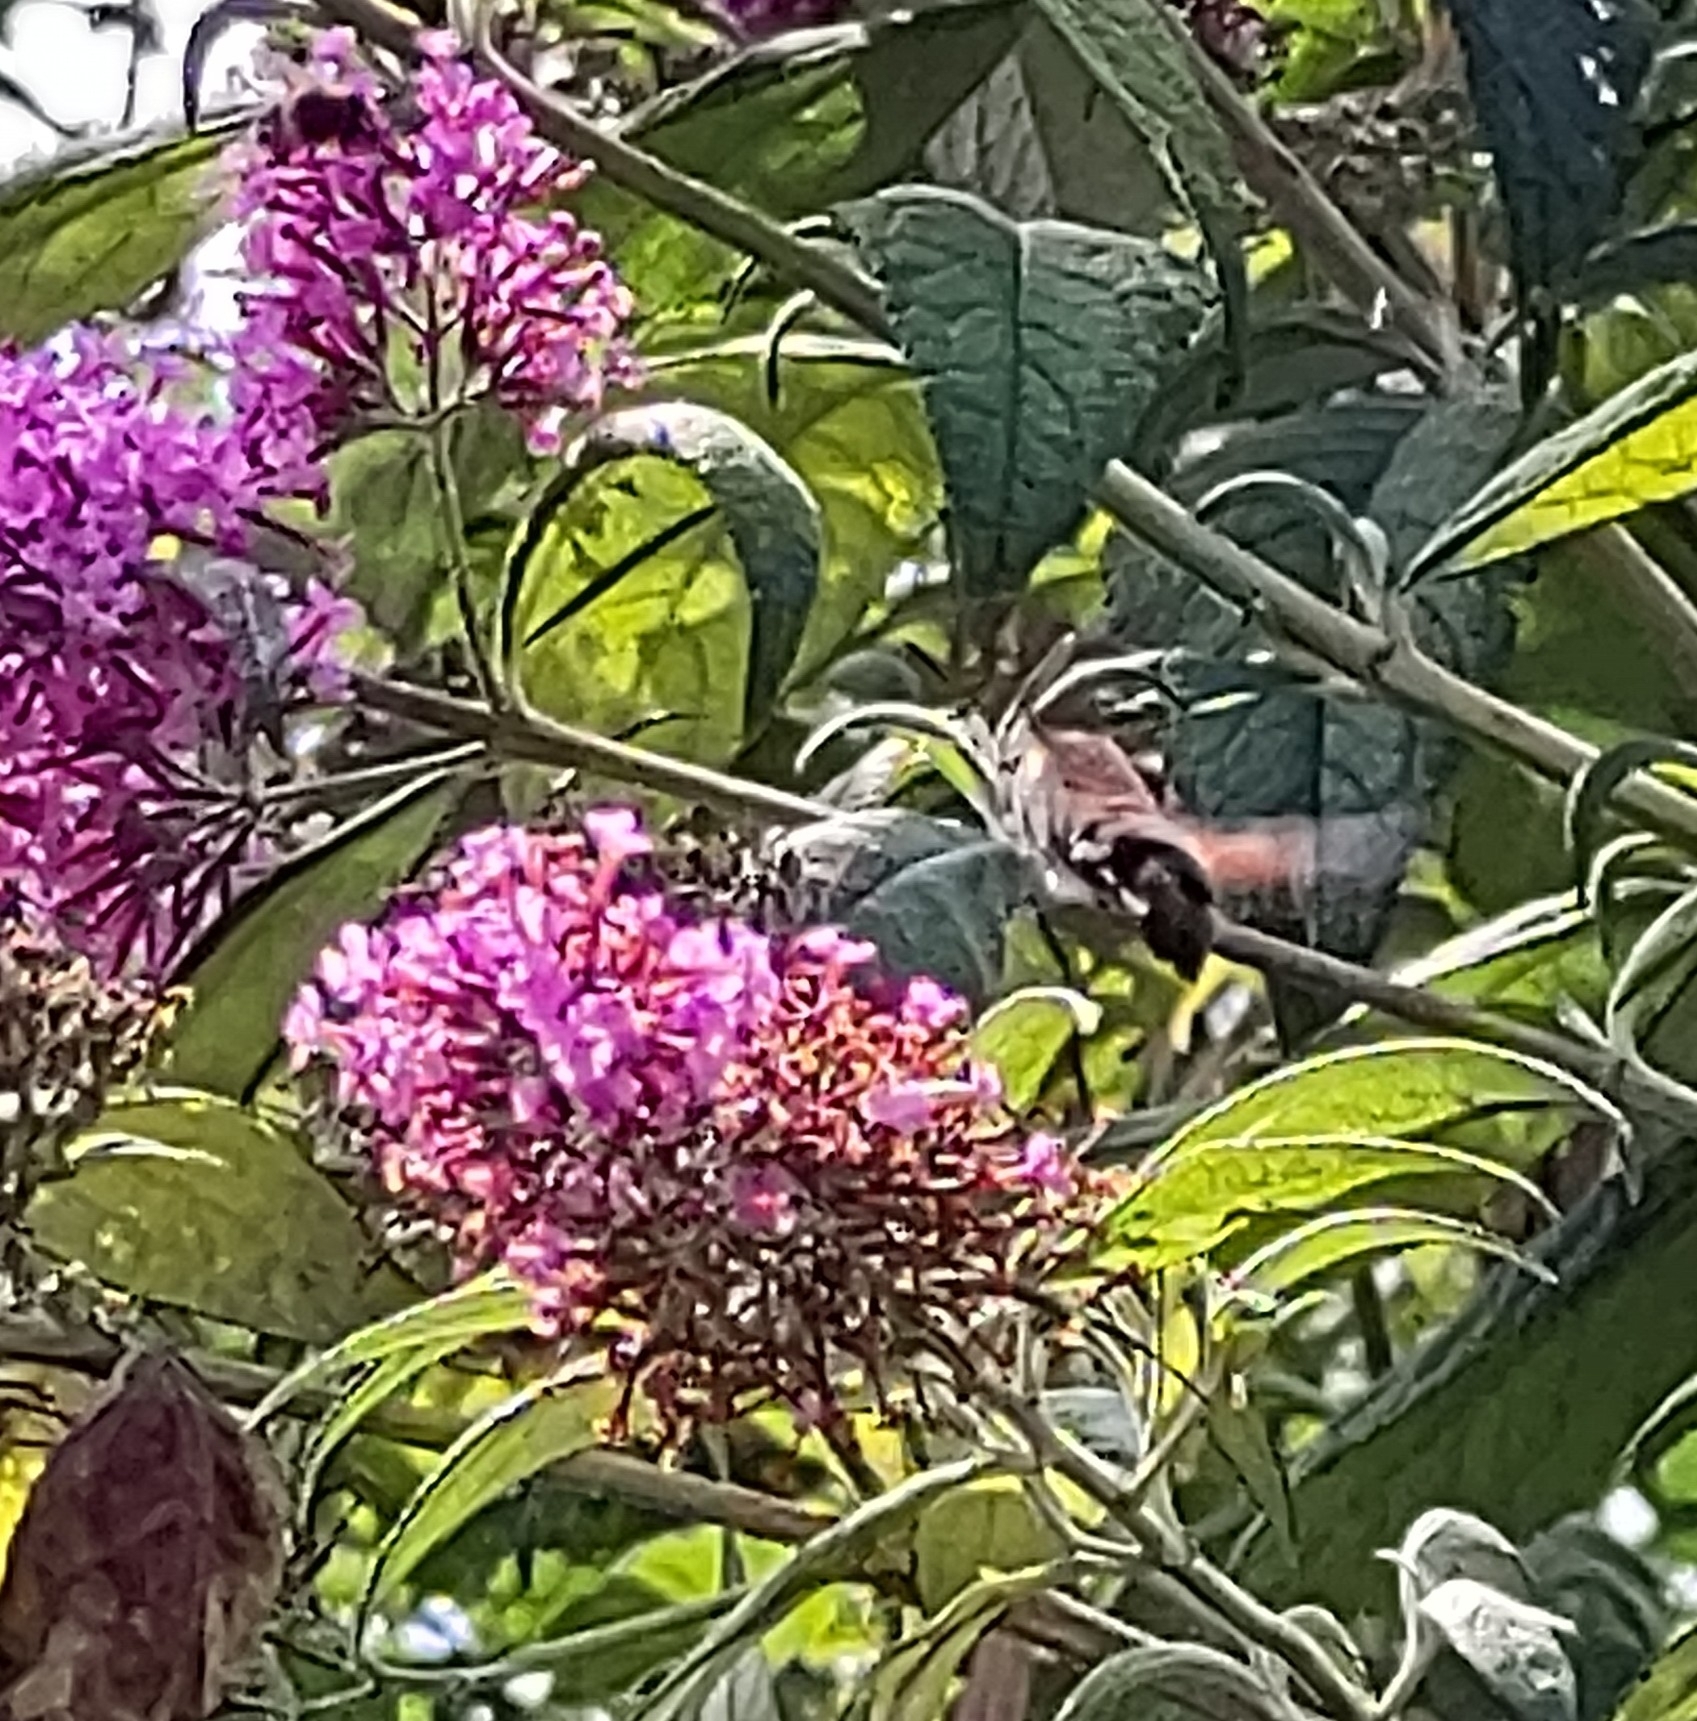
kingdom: Animalia
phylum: Arthropoda
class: Insecta
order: Lepidoptera
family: Sphingidae
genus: Macroglossum
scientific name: Macroglossum stellatarum
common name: Humming-bird hawk-moth
